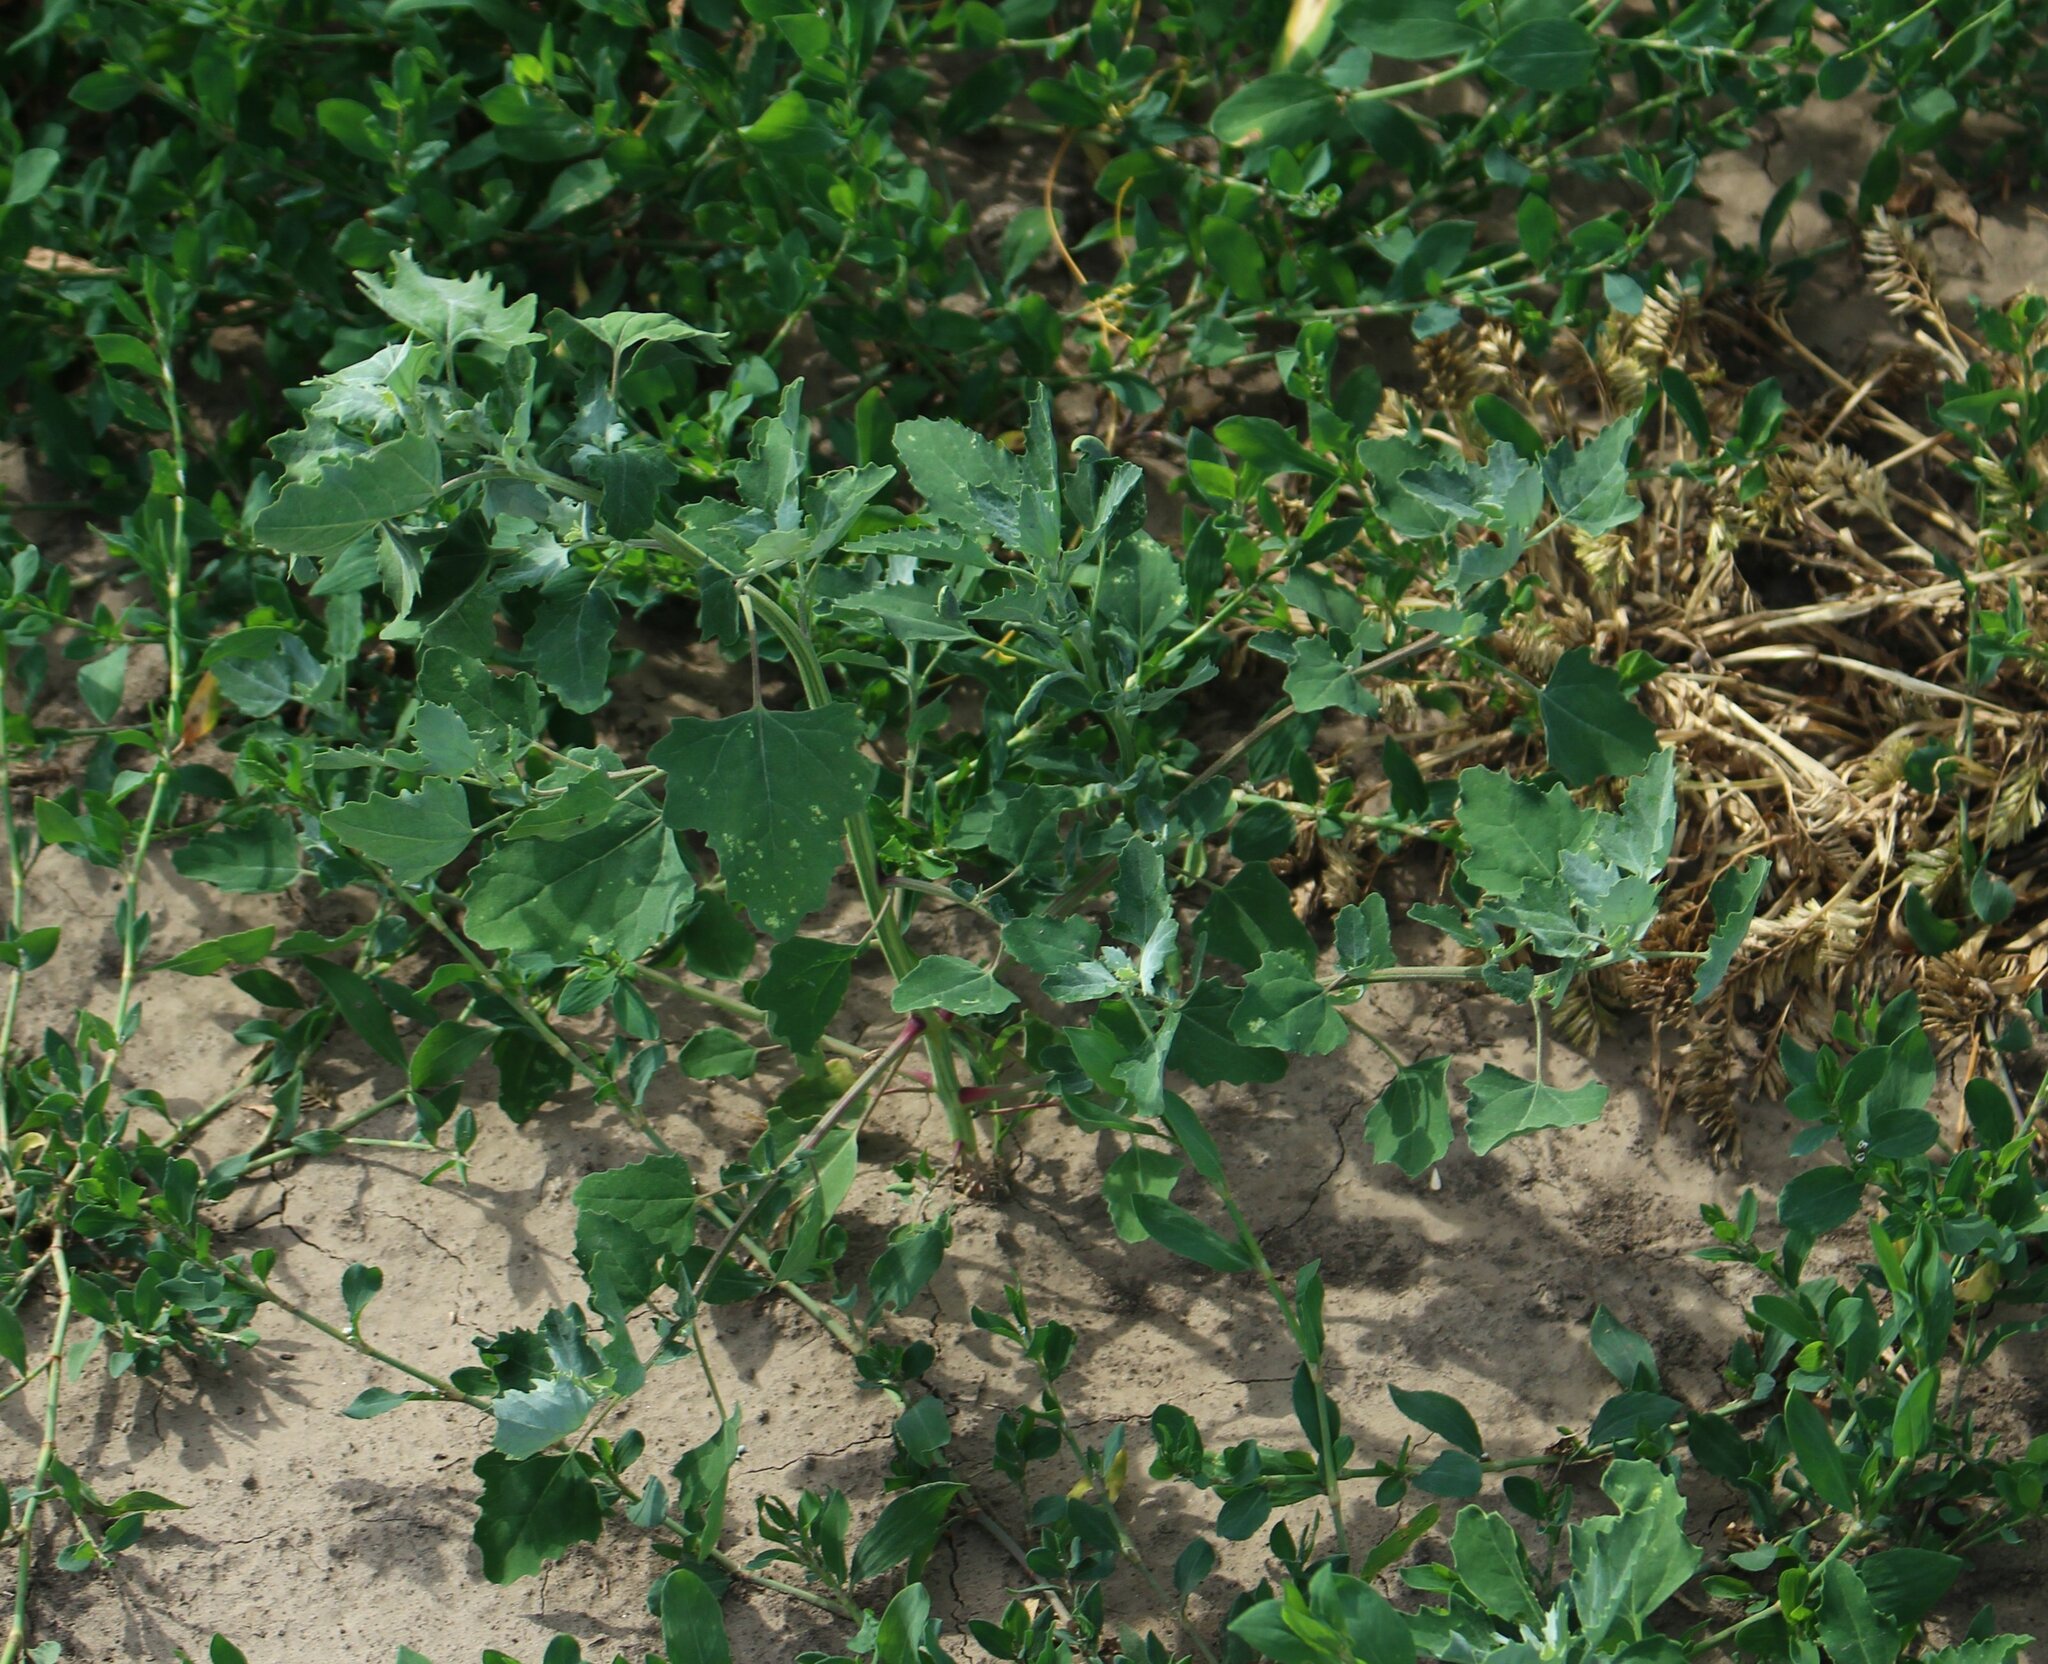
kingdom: Plantae
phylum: Tracheophyta
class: Magnoliopsida
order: Caryophyllales
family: Amaranthaceae
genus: Chenopodium
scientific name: Chenopodium album
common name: Fat-hen
